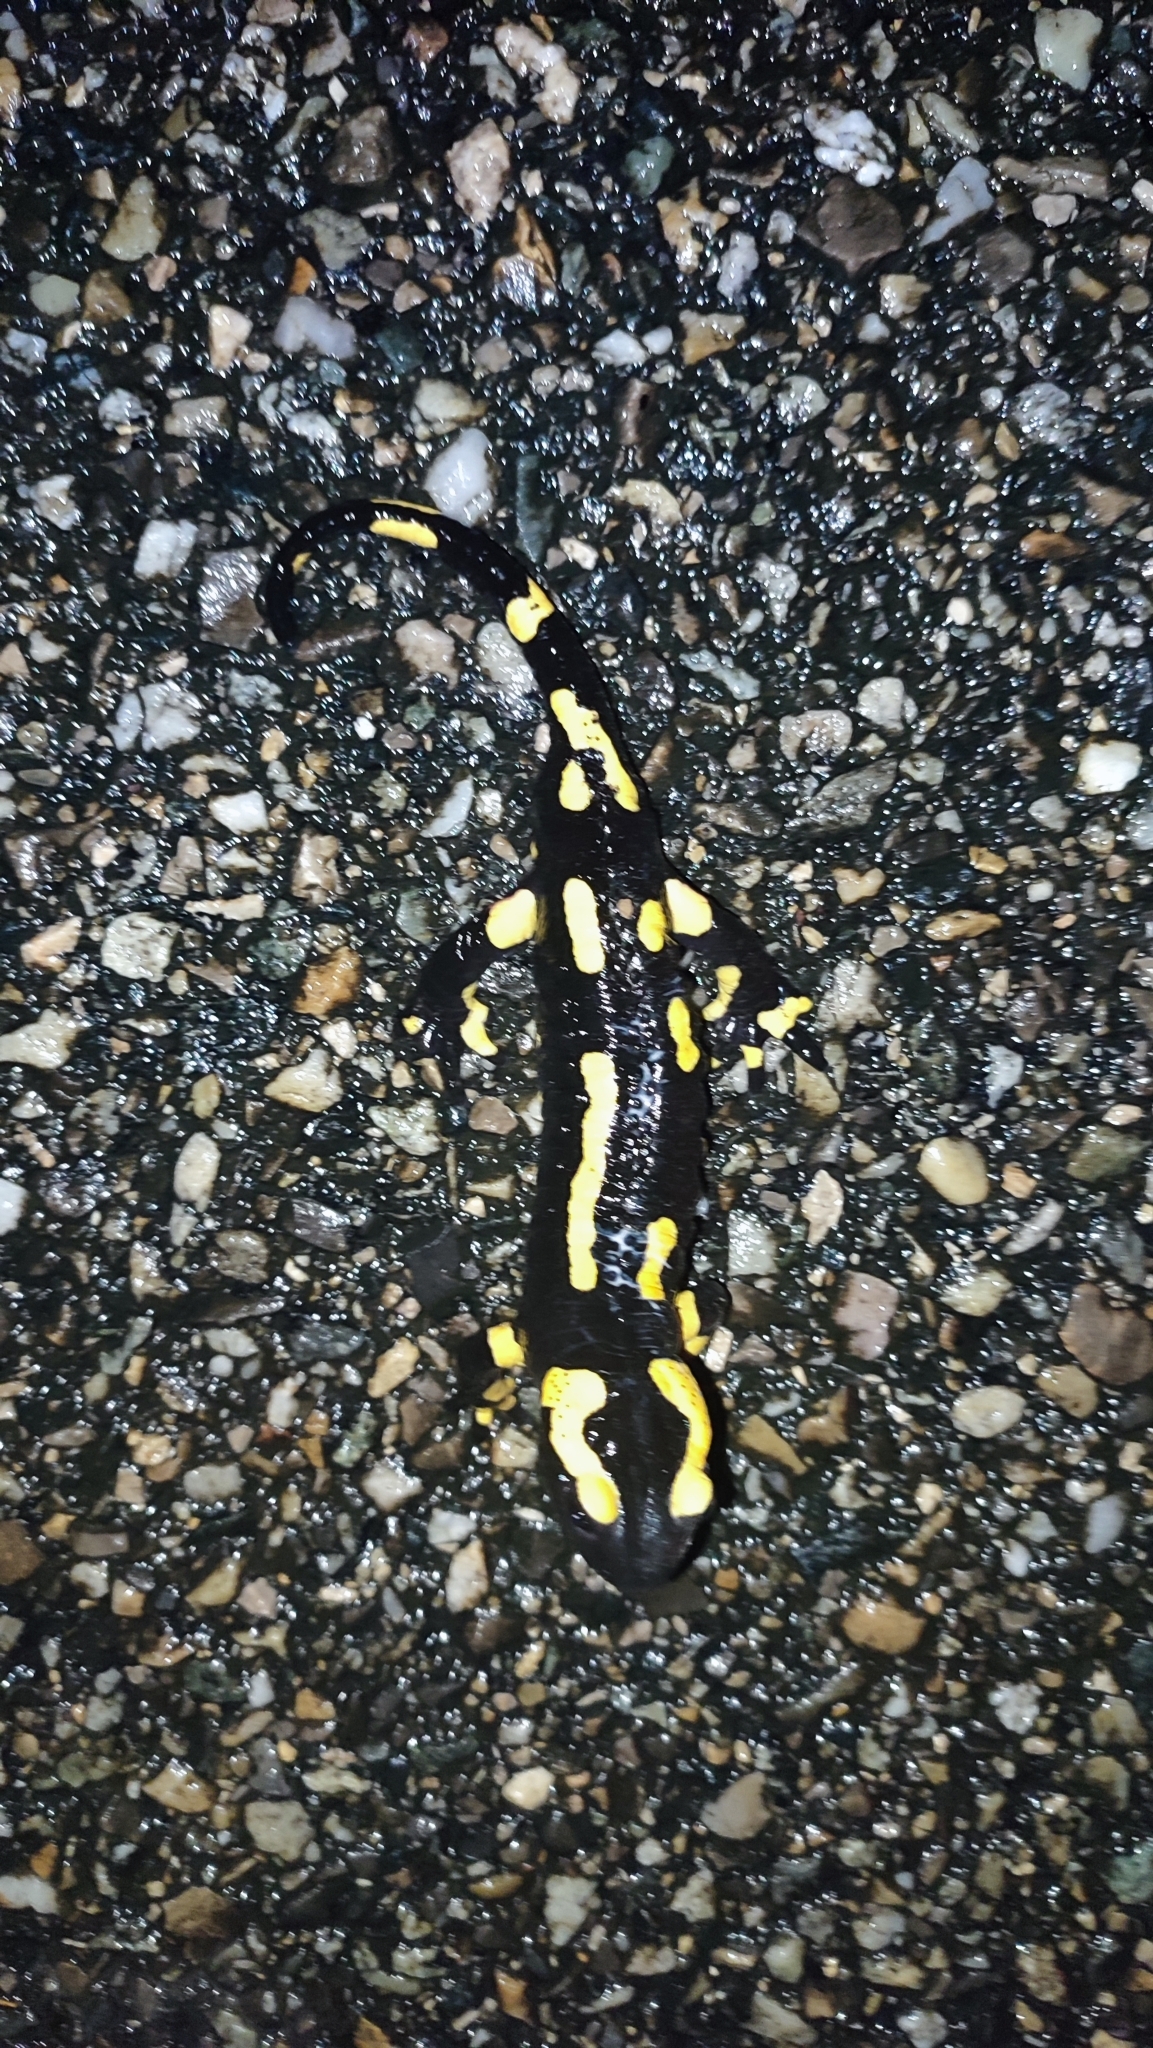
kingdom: Animalia
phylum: Chordata
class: Amphibia
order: Caudata
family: Salamandridae
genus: Salamandra
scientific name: Salamandra salamandra
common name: Fire salamander
